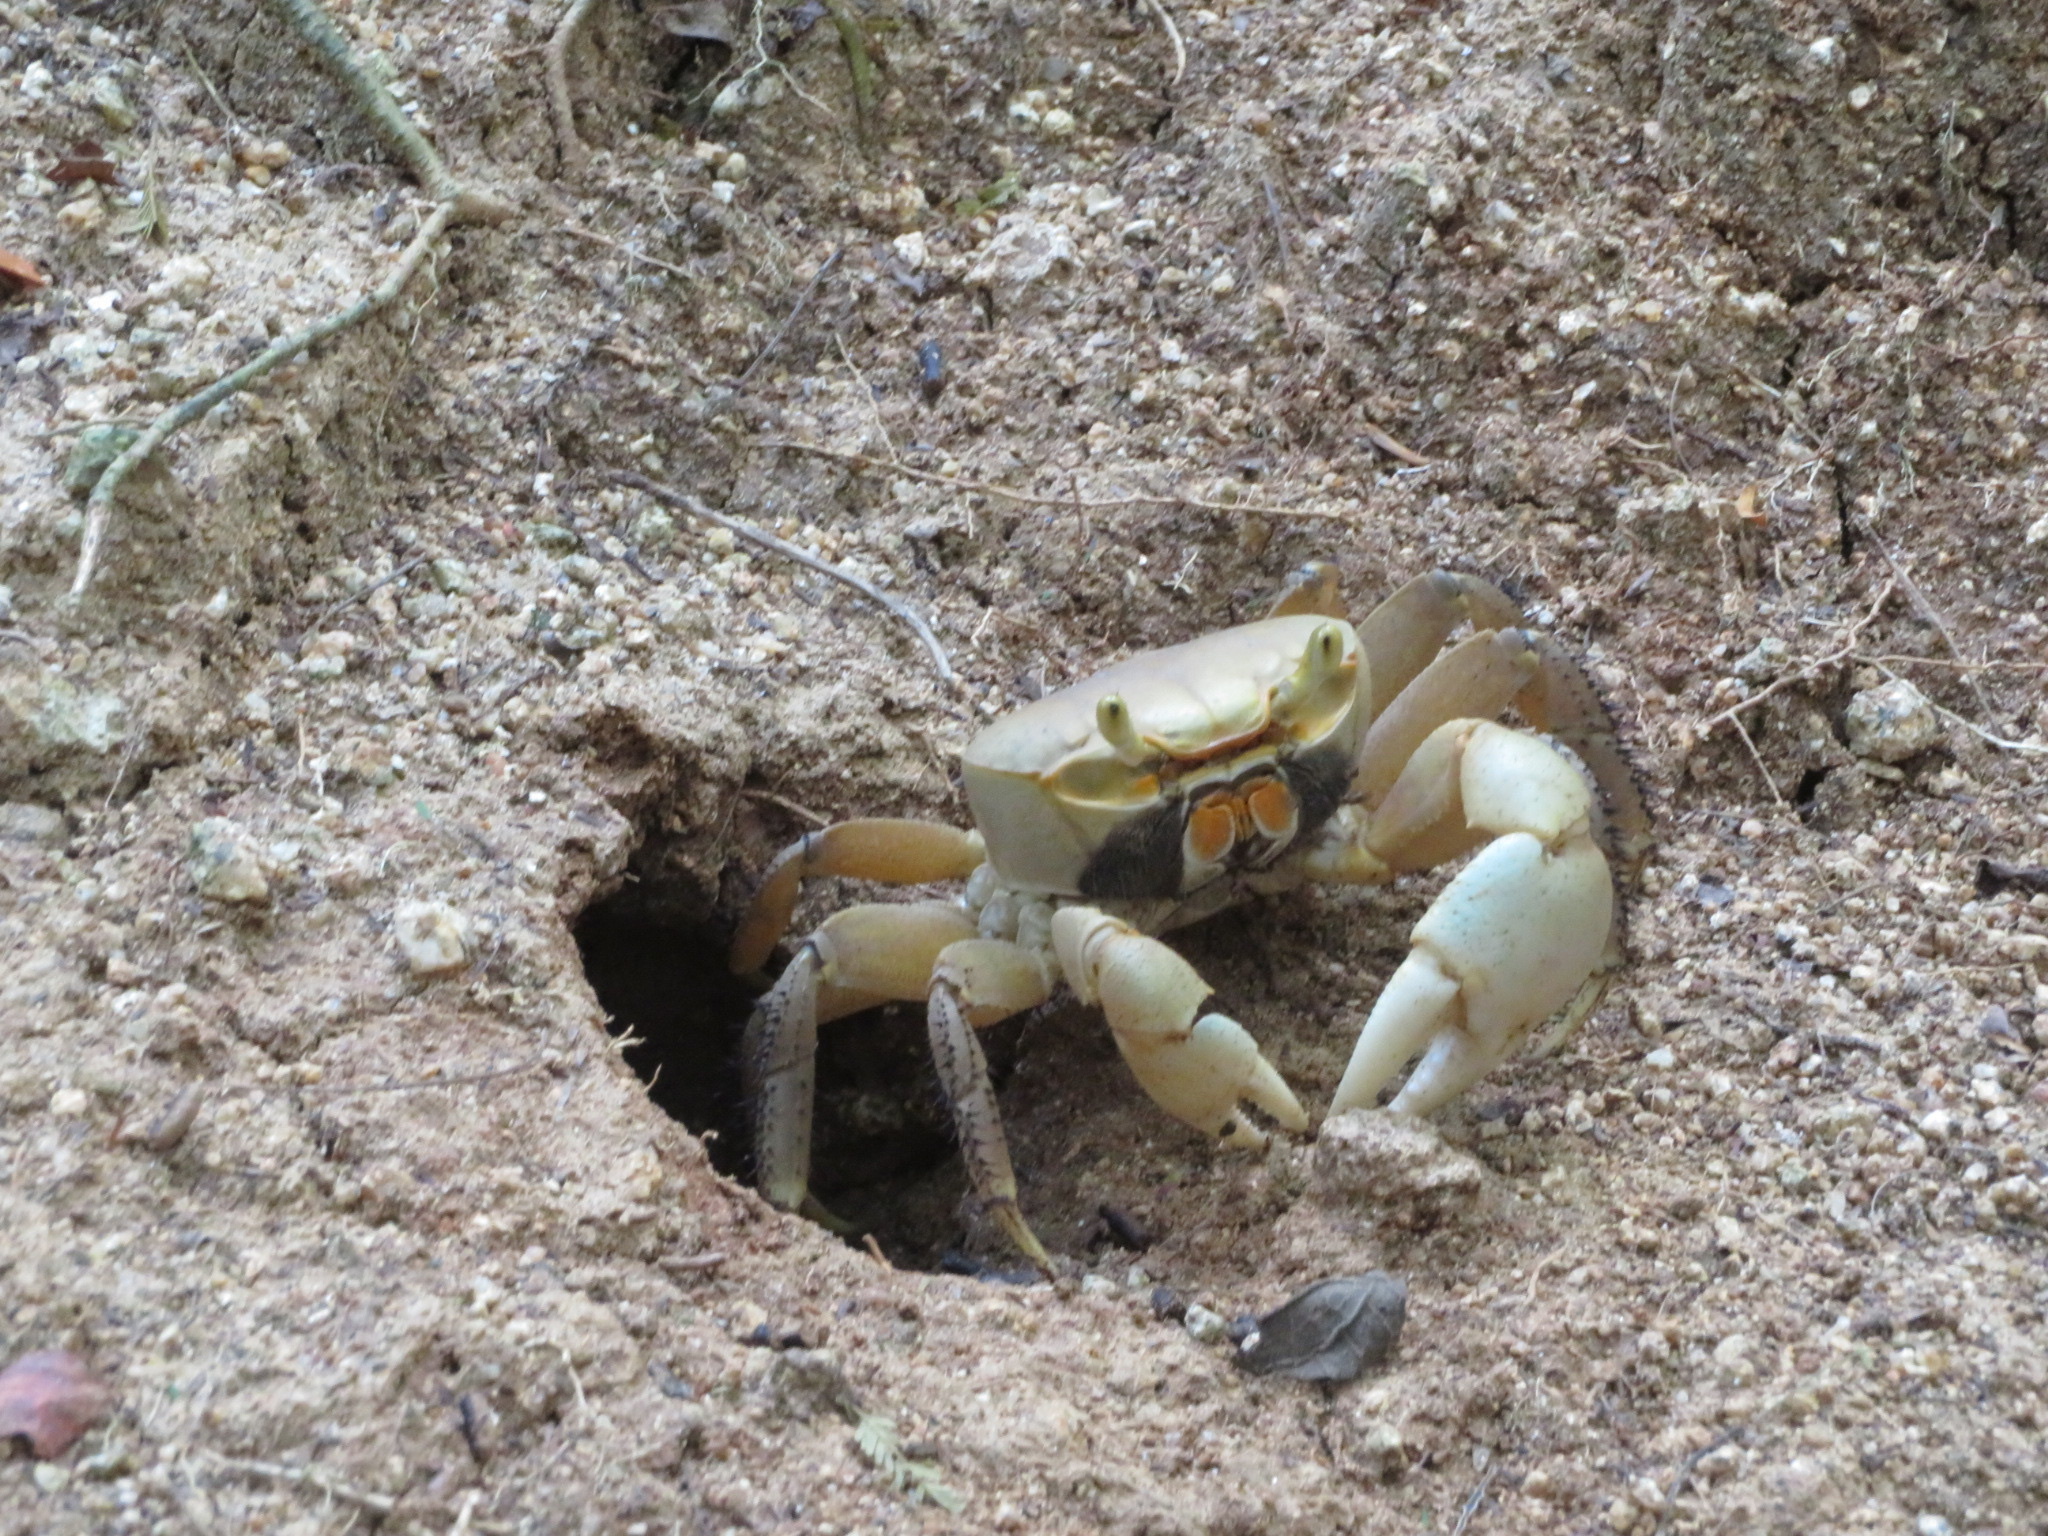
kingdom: Animalia
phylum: Arthropoda
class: Malacostraca
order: Decapoda
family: Gecarcinidae
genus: Cardisoma
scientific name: Cardisoma guanhumi
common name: Great land crab
